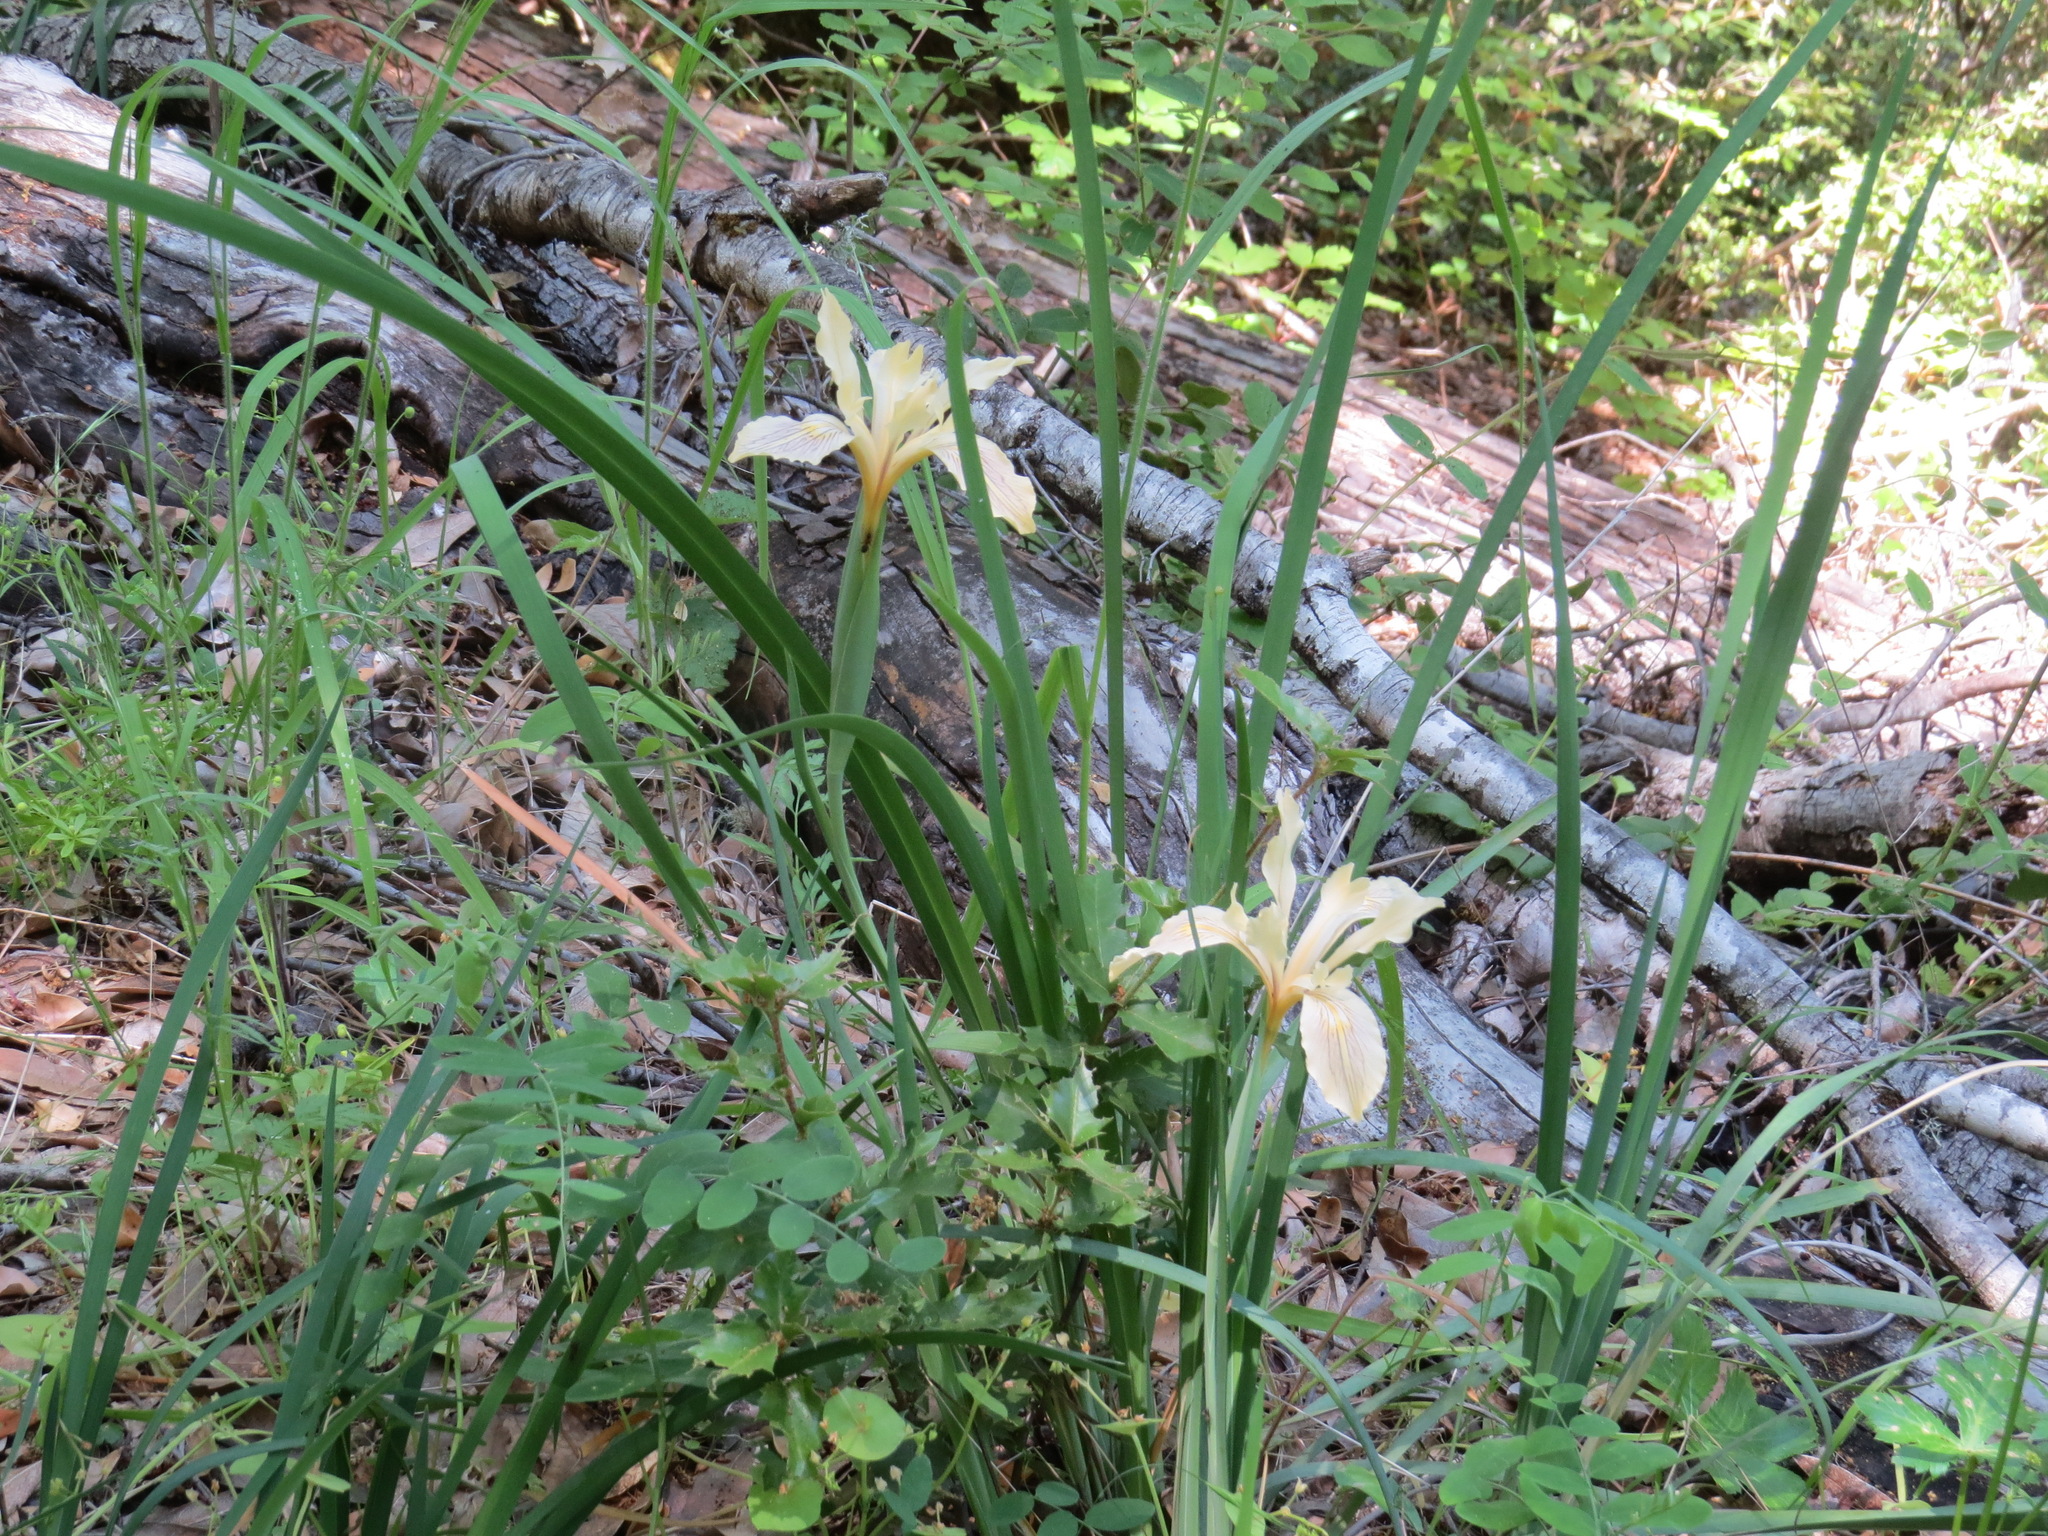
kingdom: Plantae
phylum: Tracheophyta
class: Liliopsida
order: Asparagales
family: Iridaceae
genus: Iris
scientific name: Iris fernaldii
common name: Fernald's iris
